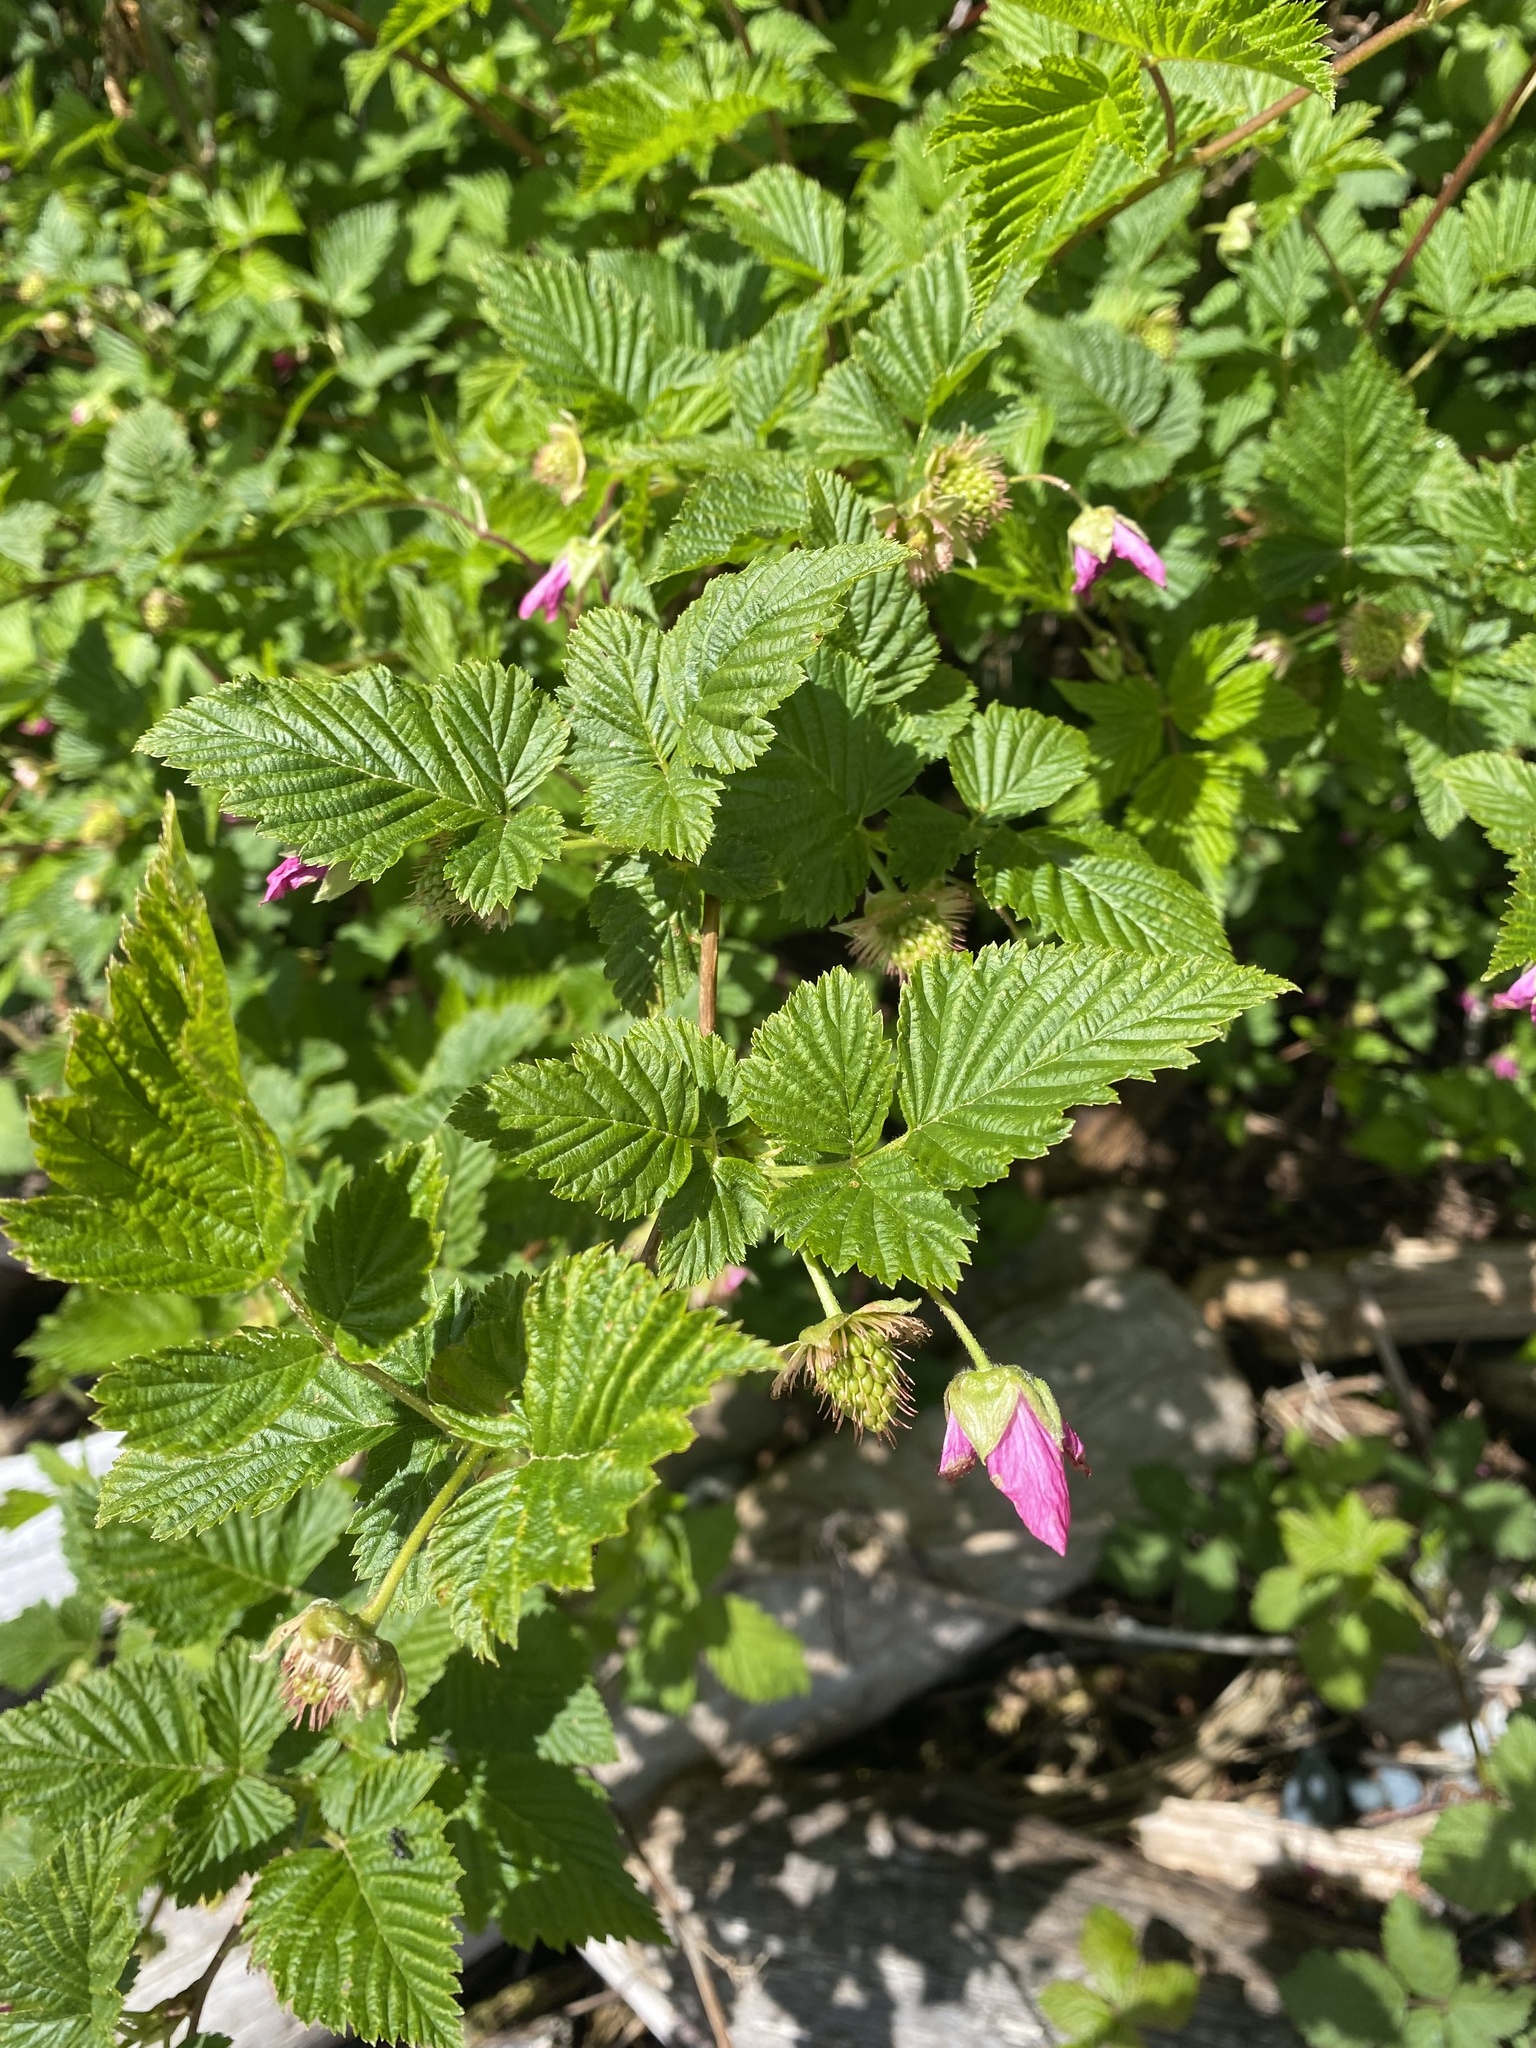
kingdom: Plantae
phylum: Tracheophyta
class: Magnoliopsida
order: Rosales
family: Rosaceae
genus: Rubus
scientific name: Rubus spectabilis
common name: Salmonberry
